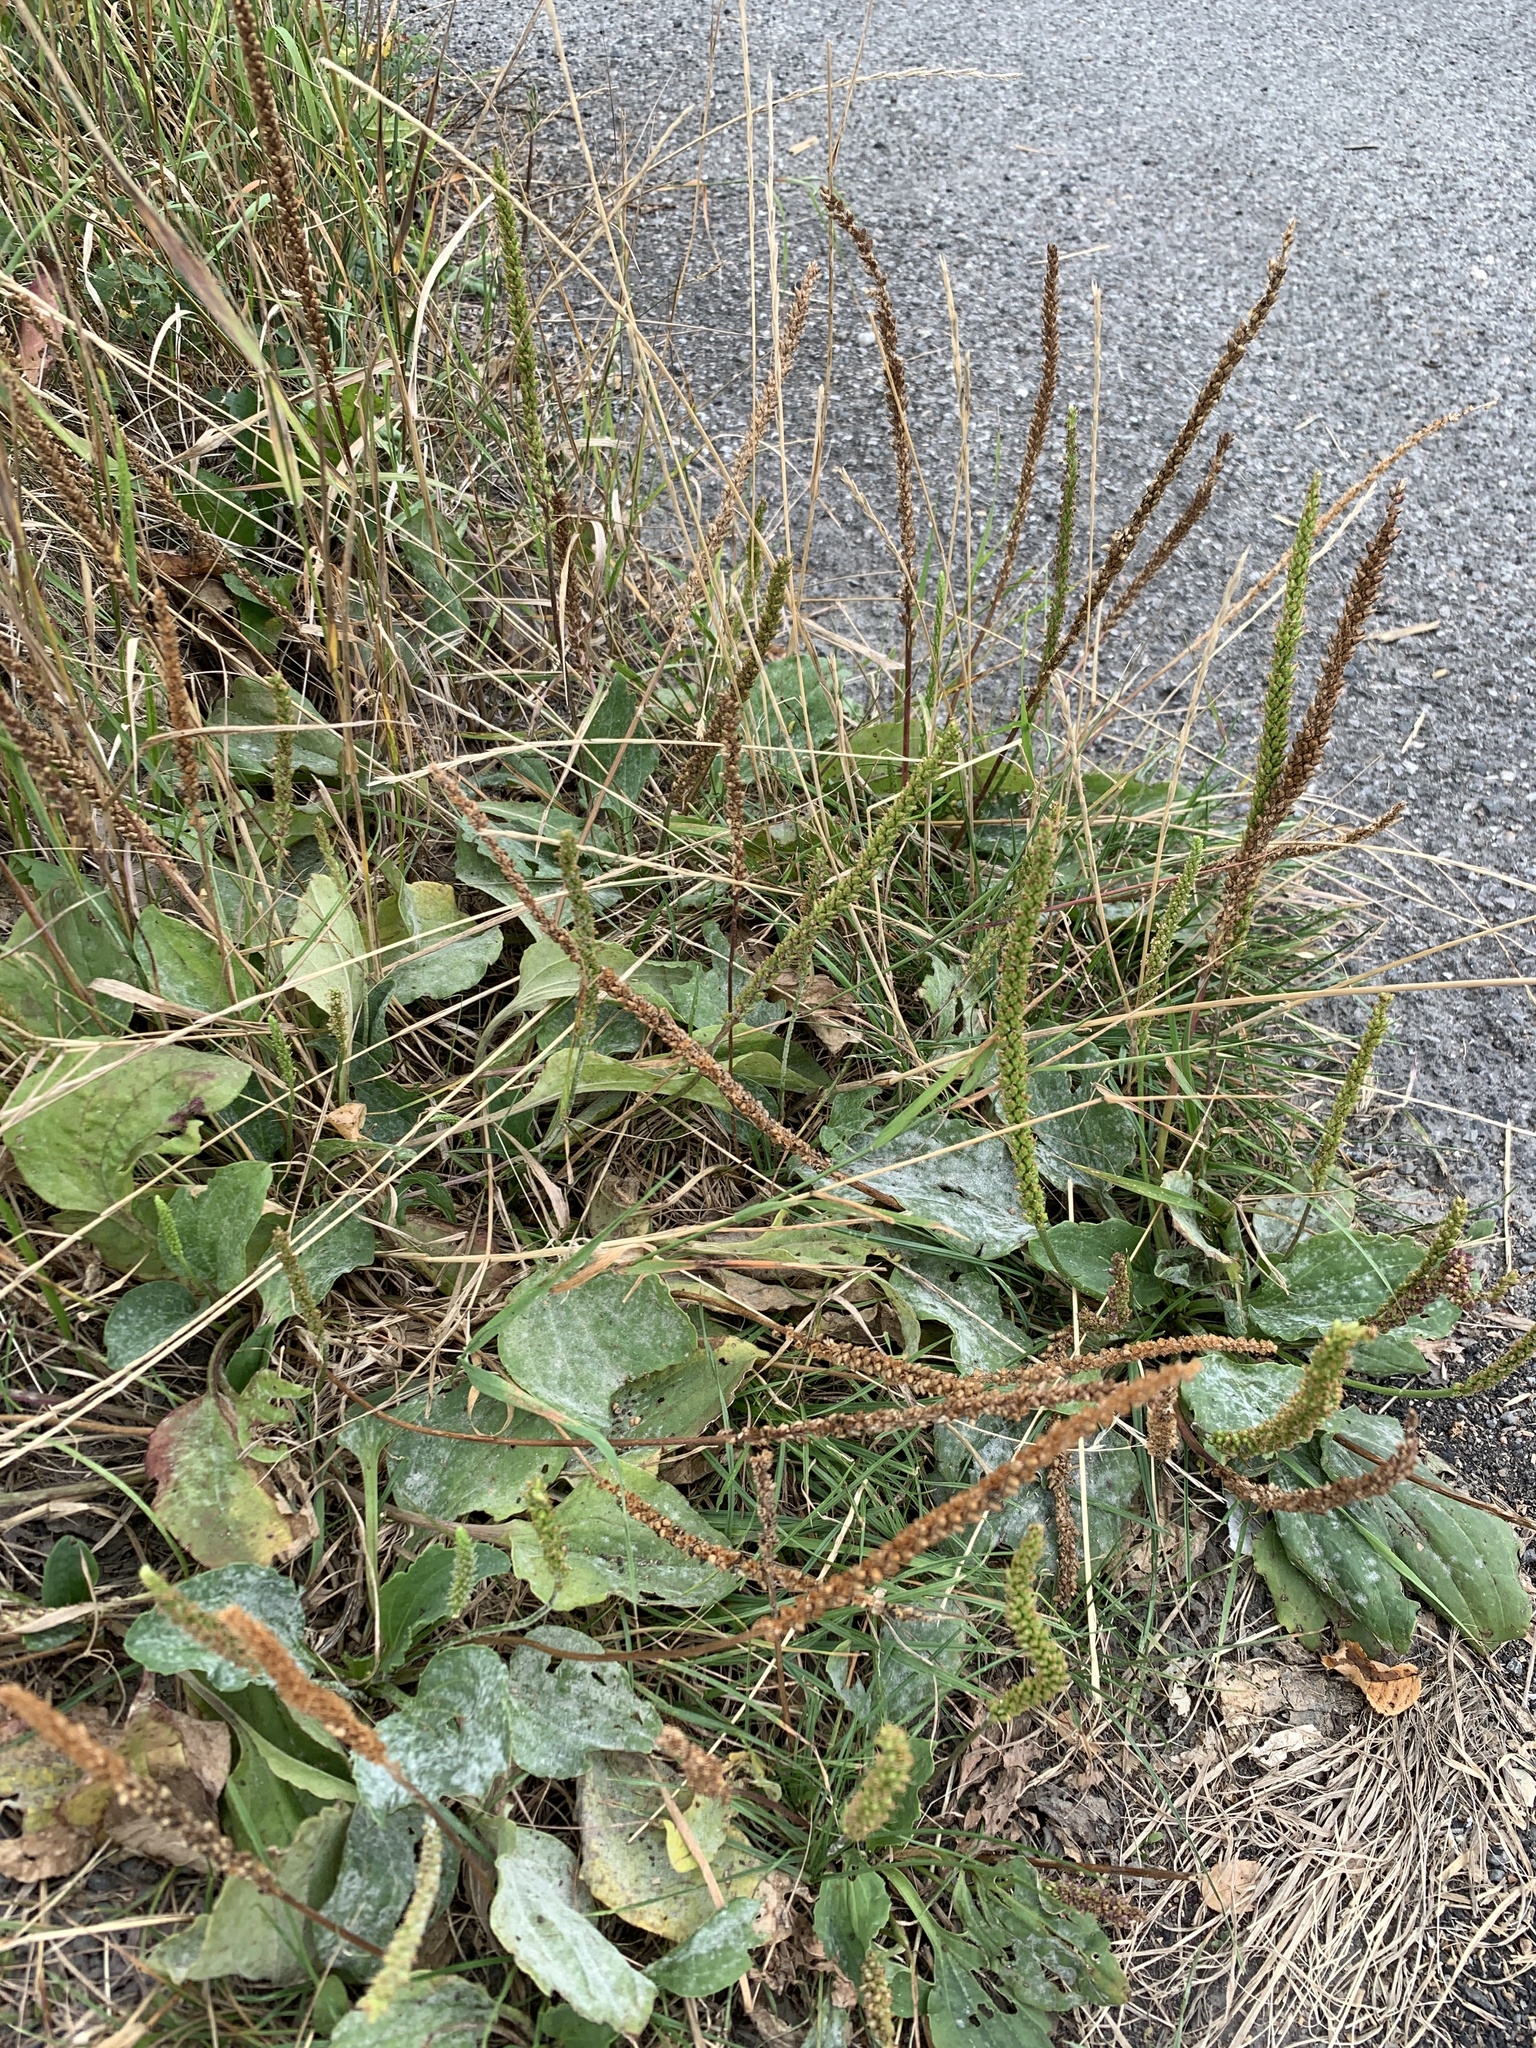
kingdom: Plantae
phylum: Tracheophyta
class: Magnoliopsida
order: Lamiales
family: Plantaginaceae
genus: Plantago
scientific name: Plantago major
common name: Common plantain
